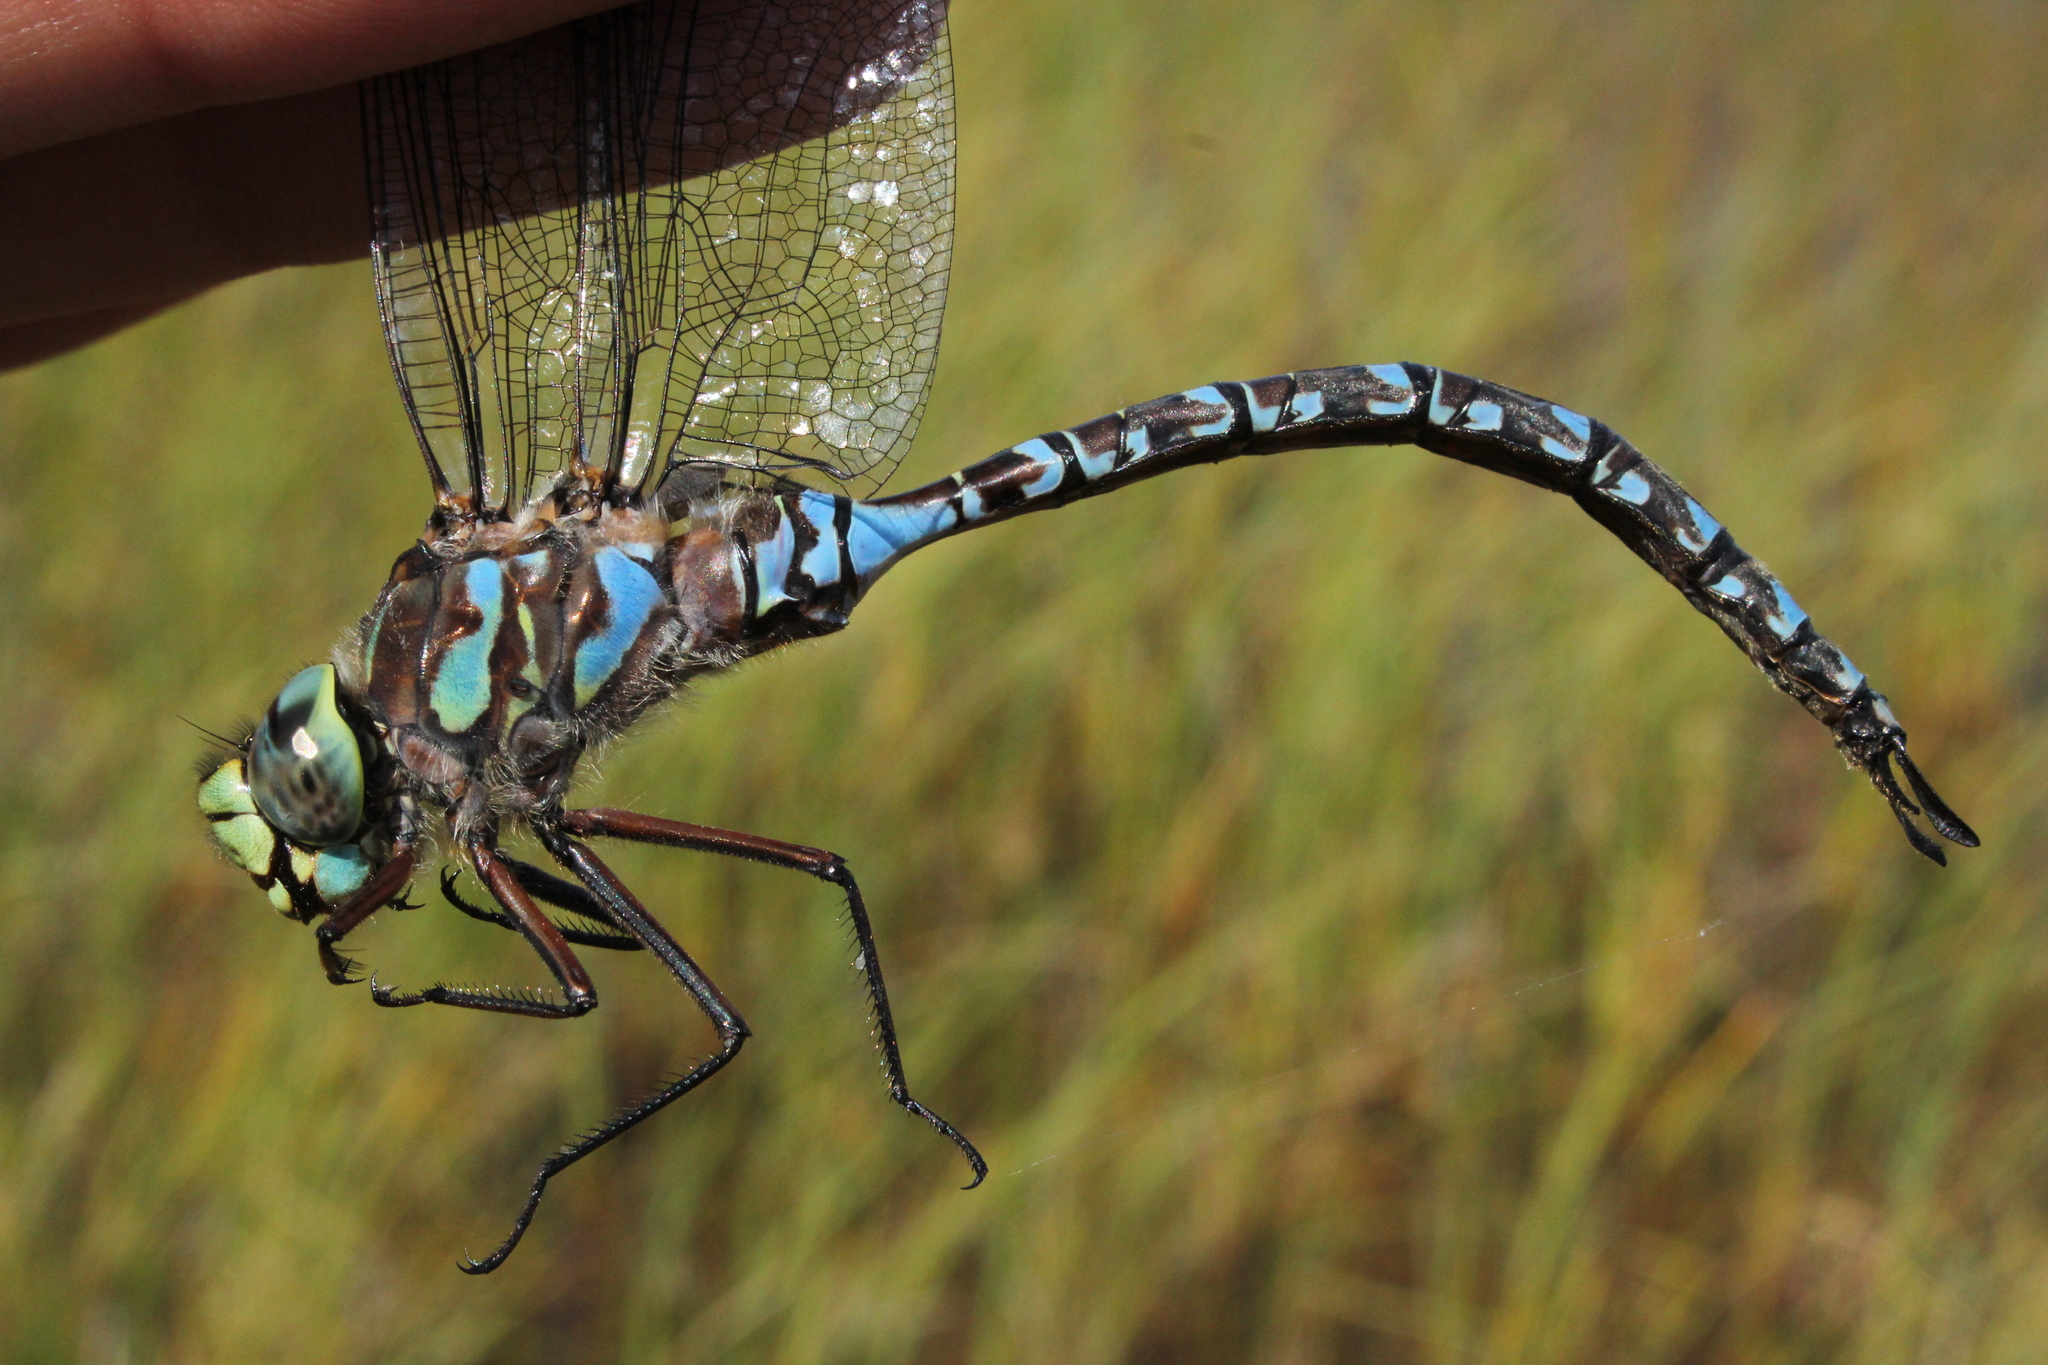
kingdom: Animalia
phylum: Arthropoda
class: Insecta
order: Odonata
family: Aeshnidae
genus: Aeshna
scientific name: Aeshna eremita
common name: Lake darner
